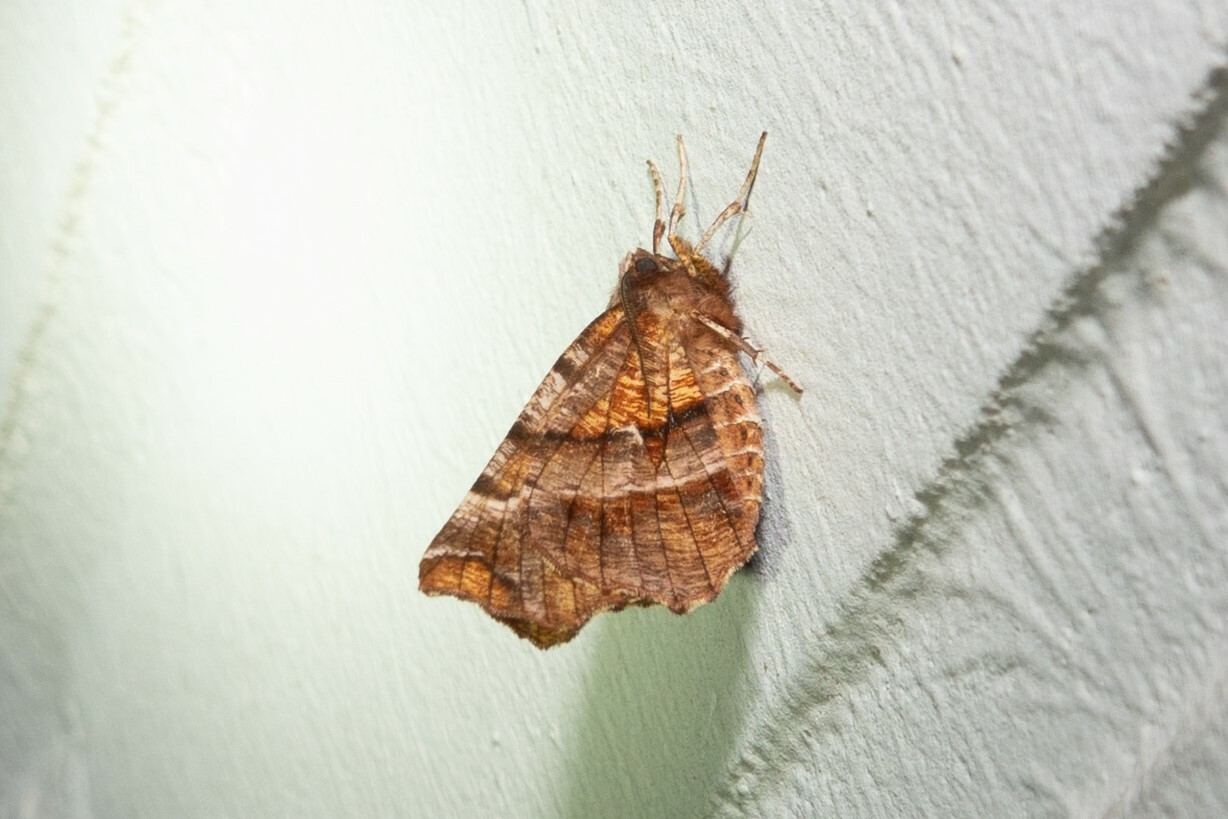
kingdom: Animalia
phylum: Arthropoda
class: Insecta
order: Lepidoptera
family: Geometridae
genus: Selenia
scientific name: Selenia dentaria
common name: Early thorn
